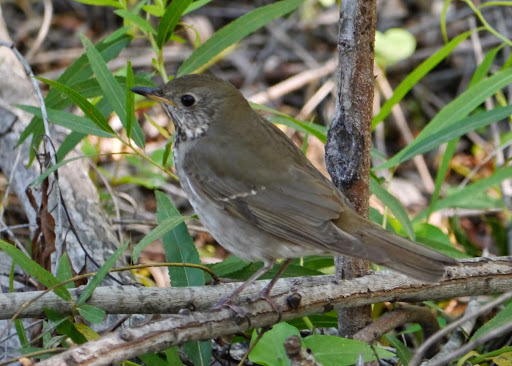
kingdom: Animalia
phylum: Chordata
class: Aves
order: Passeriformes
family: Turdidae
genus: Catharus
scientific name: Catharus minimus
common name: Grey-cheeked thrush
